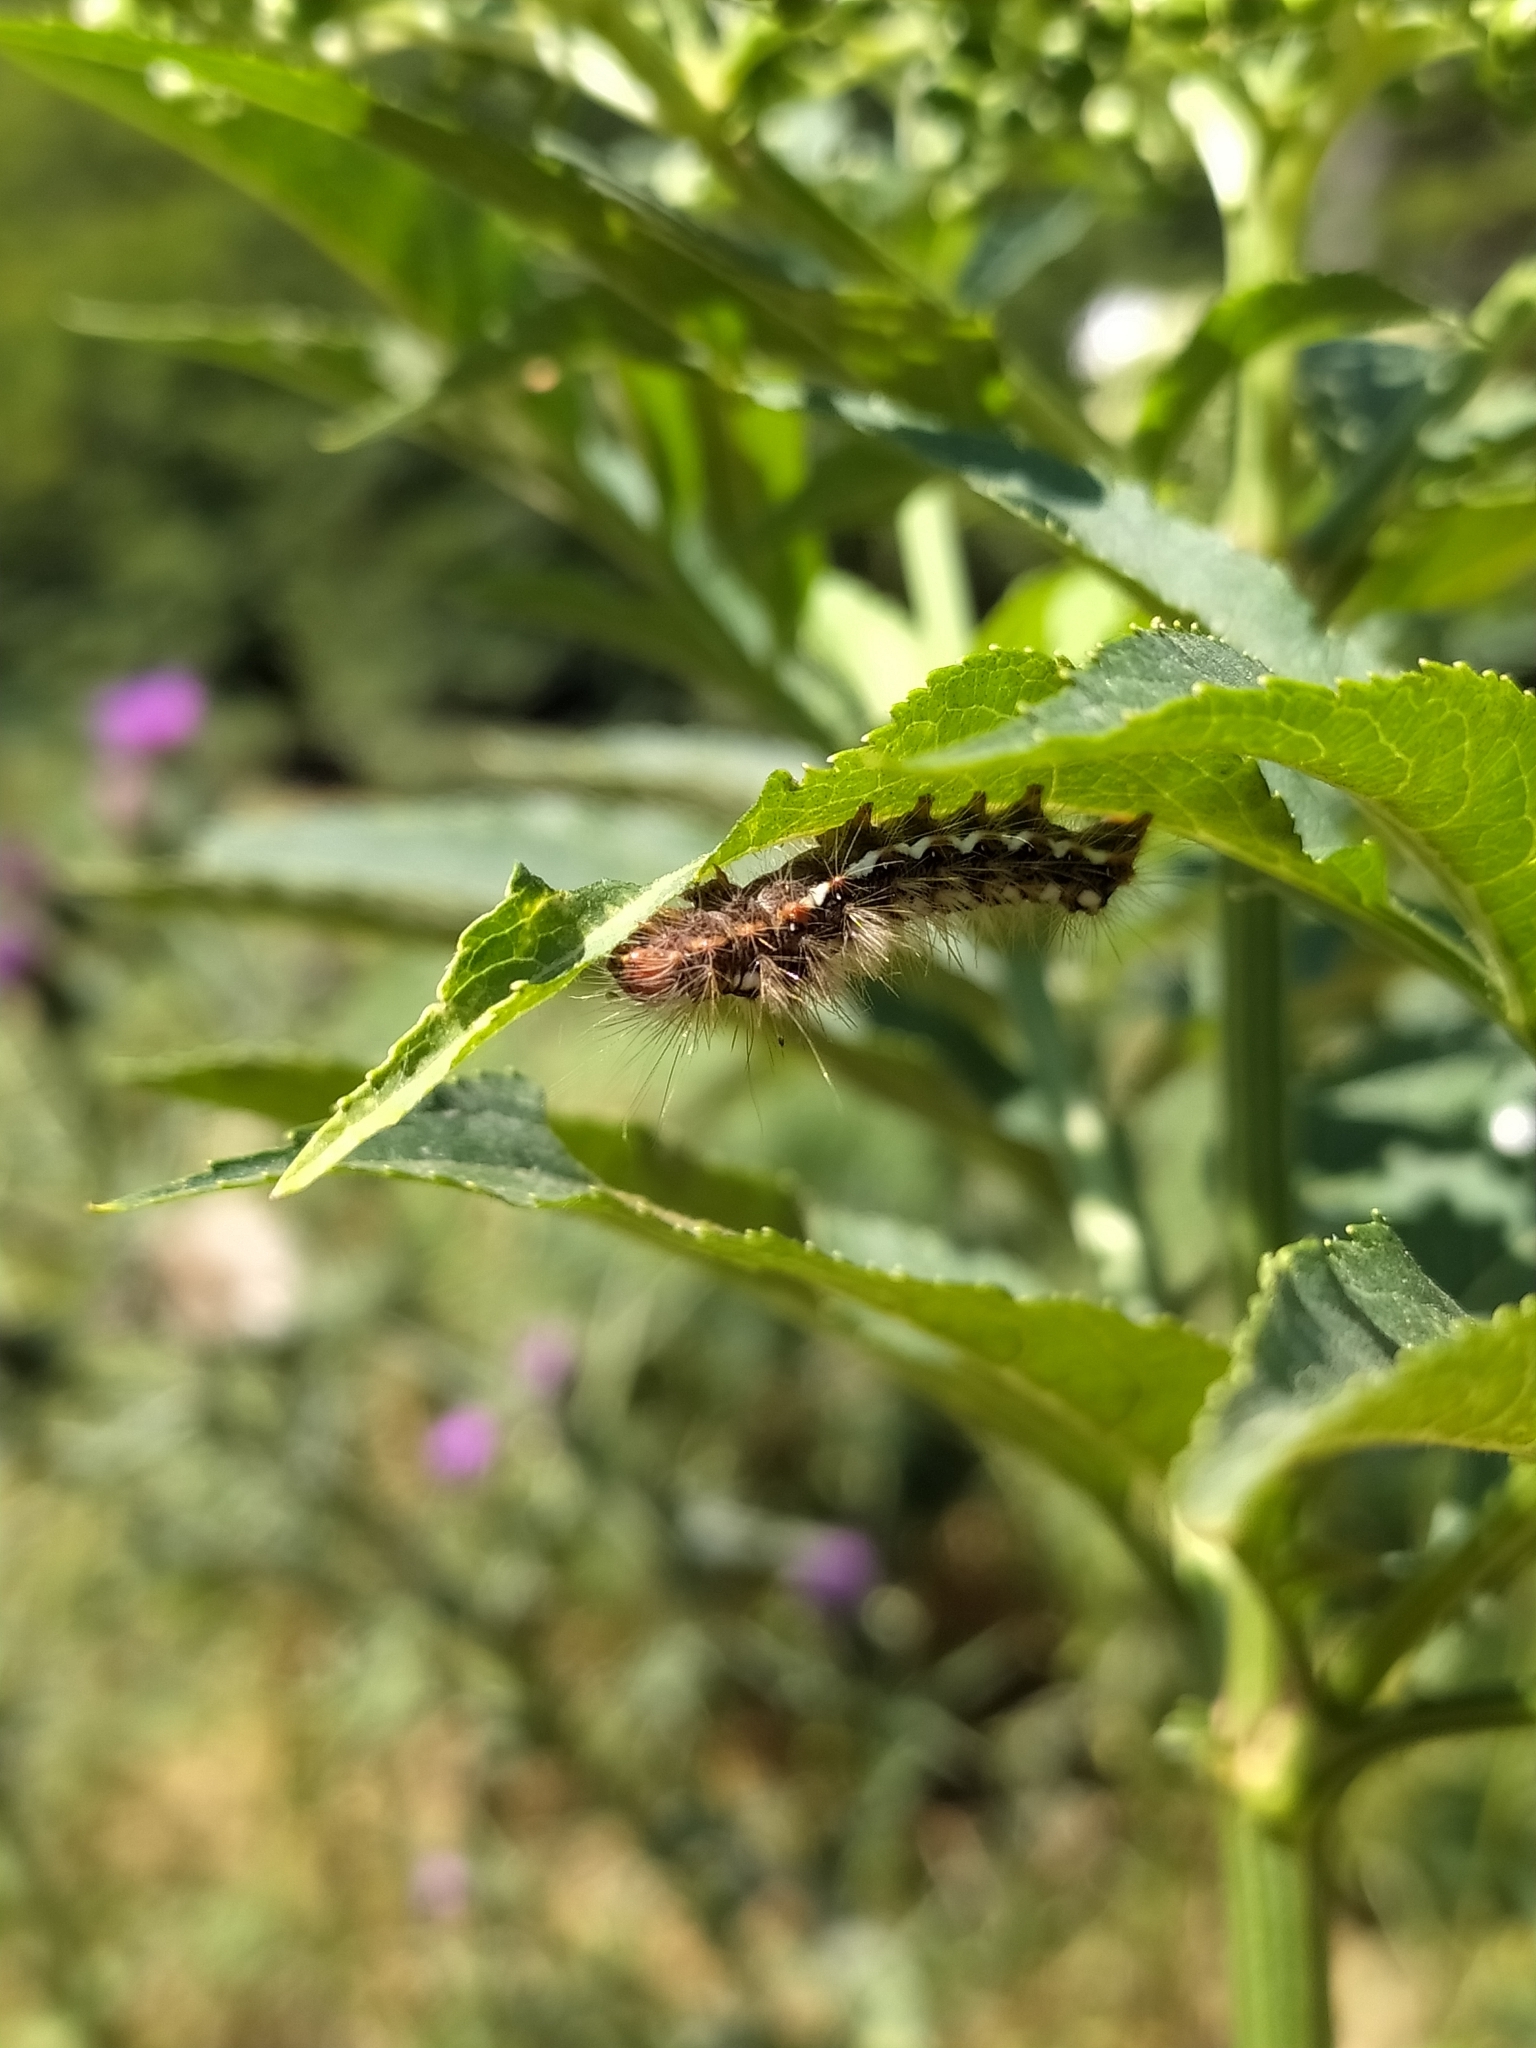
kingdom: Animalia
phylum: Arthropoda
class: Insecta
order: Lepidoptera
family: Noctuidae
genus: Acronicta
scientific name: Acronicta rumicis
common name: Knot grass
